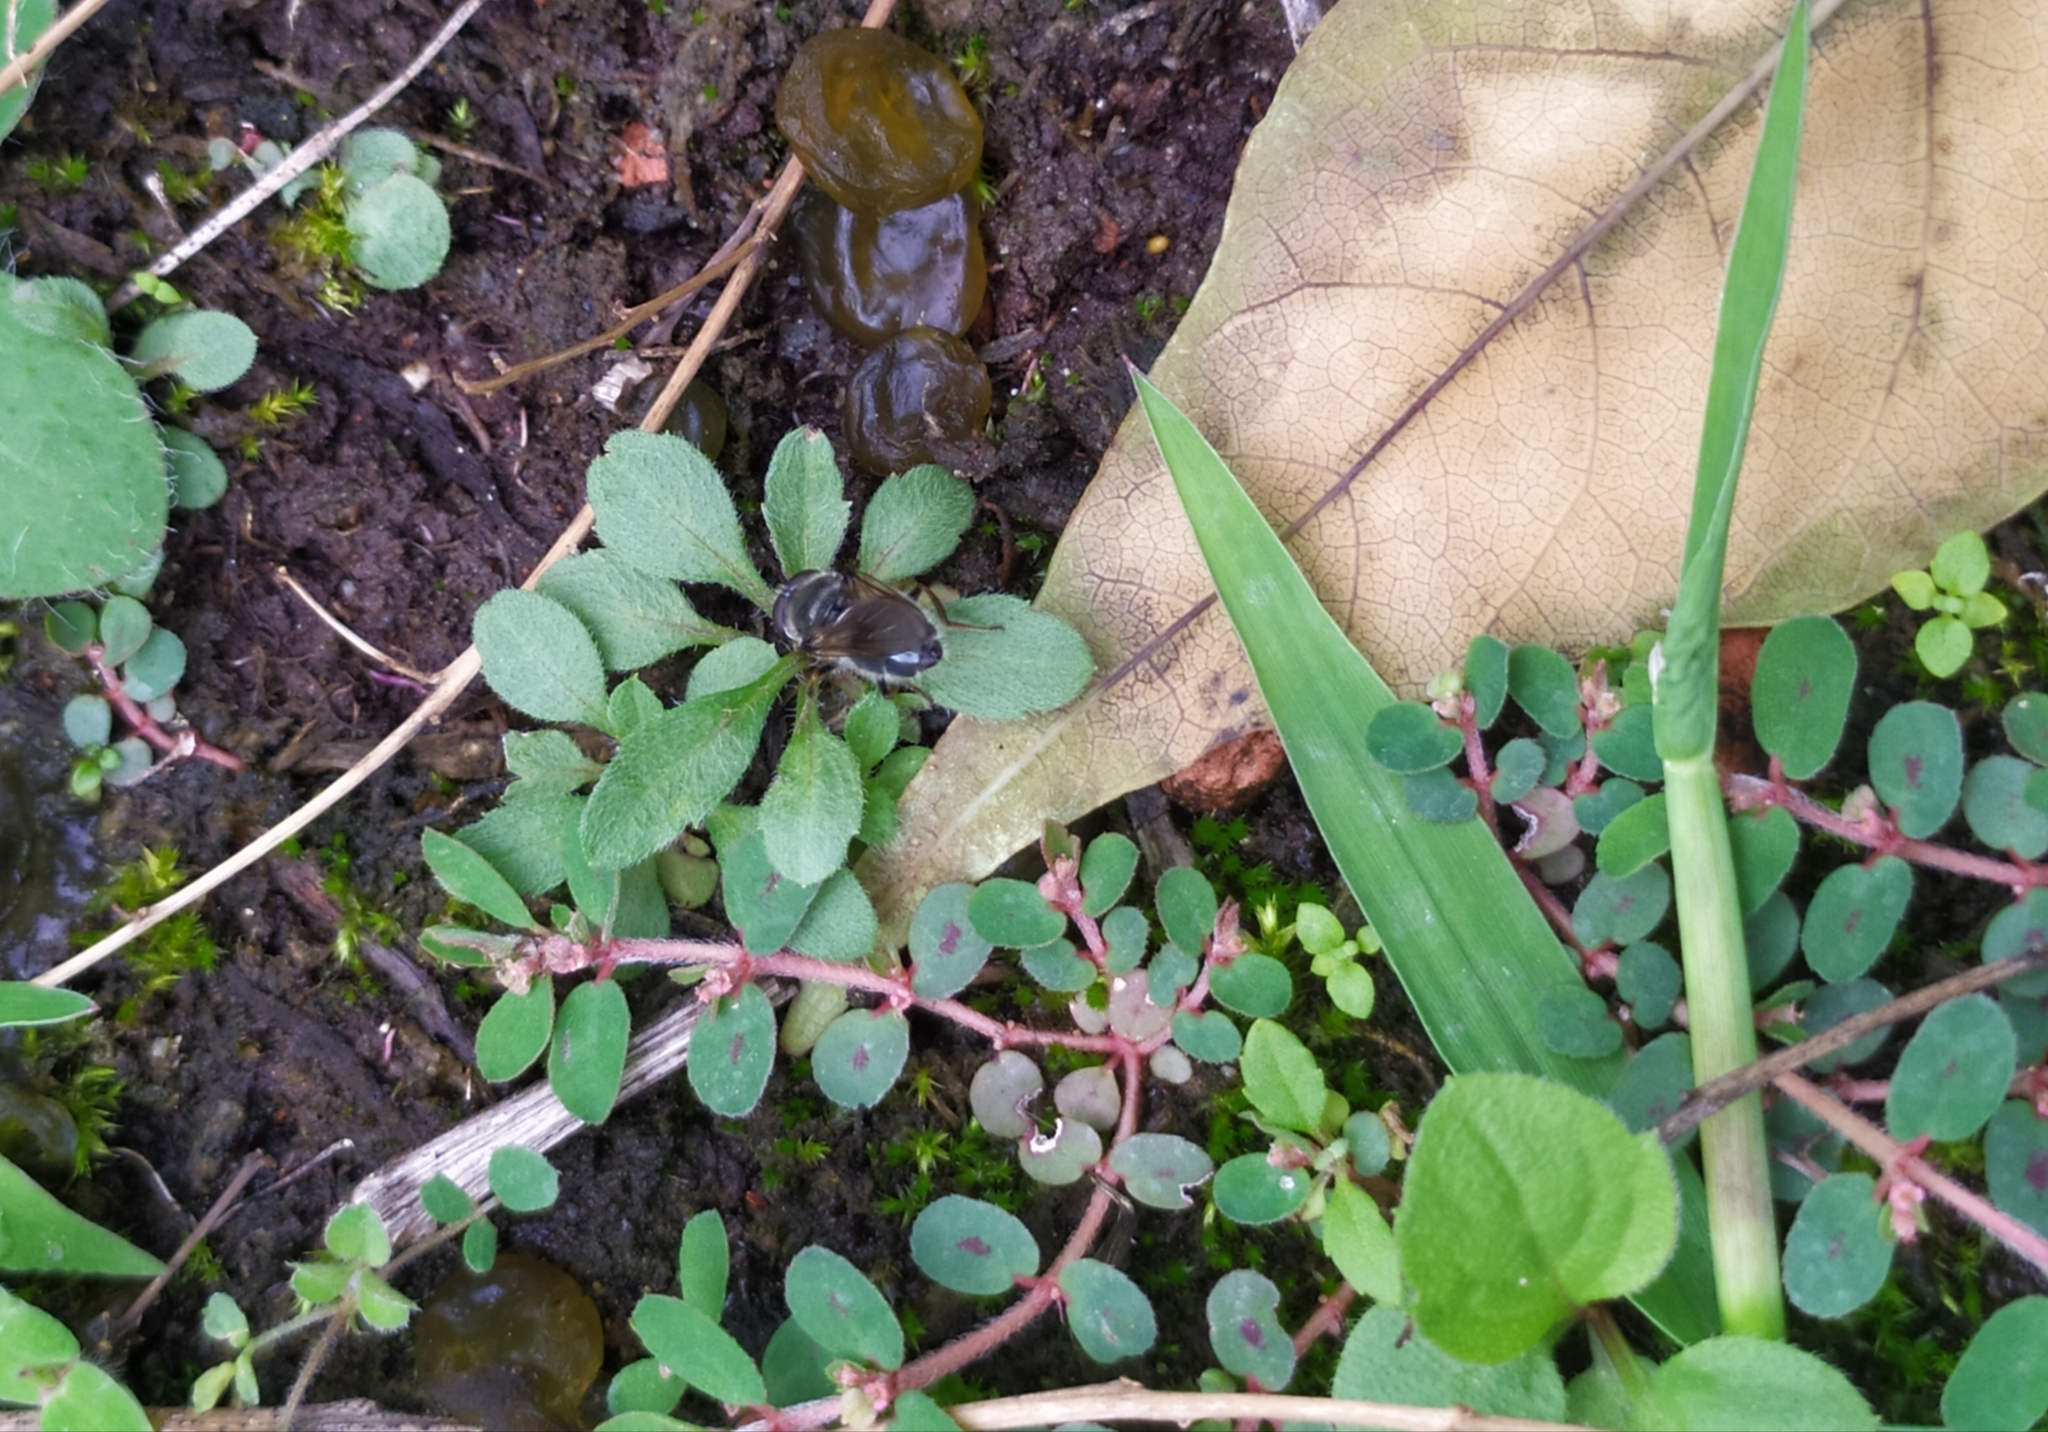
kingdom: Bacteria
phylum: Cyanobacteria
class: Cyanobacteriia
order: Cyanobacteriales
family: Nostocaceae
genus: Nostoc
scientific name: Nostoc commune
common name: Star jelly
